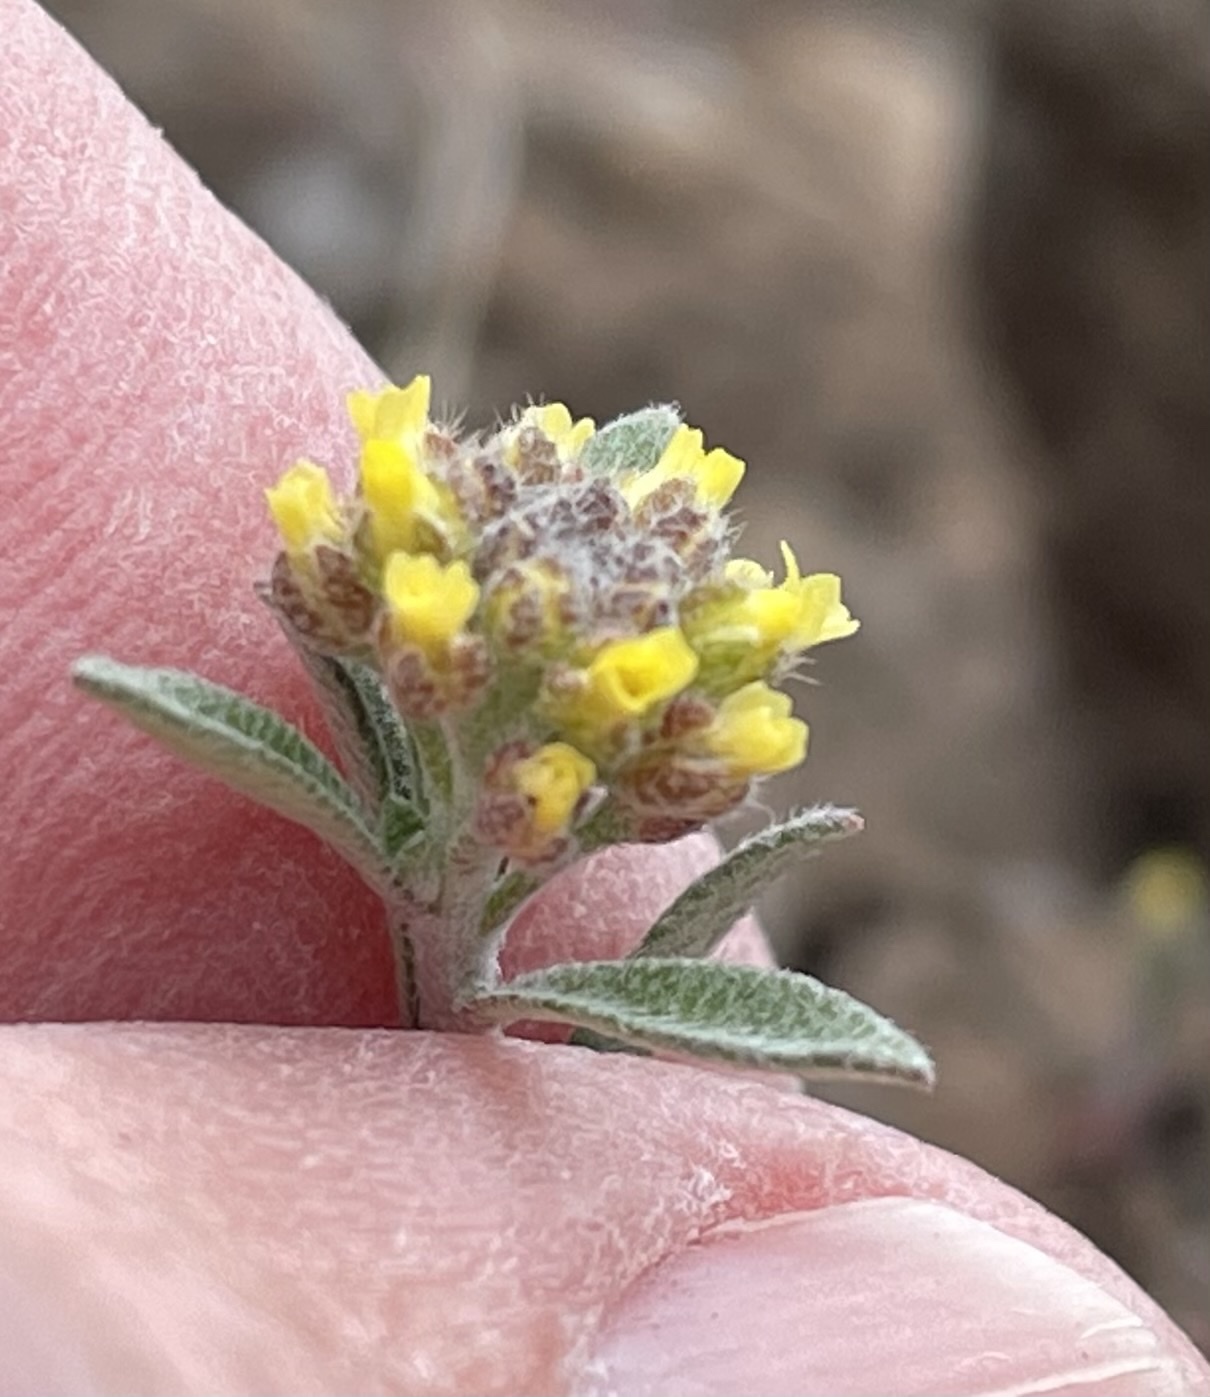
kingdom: Plantae
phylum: Tracheophyta
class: Magnoliopsida
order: Brassicales
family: Brassicaceae
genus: Alyssum
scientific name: Alyssum turkestanicum
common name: Desert alyssum
